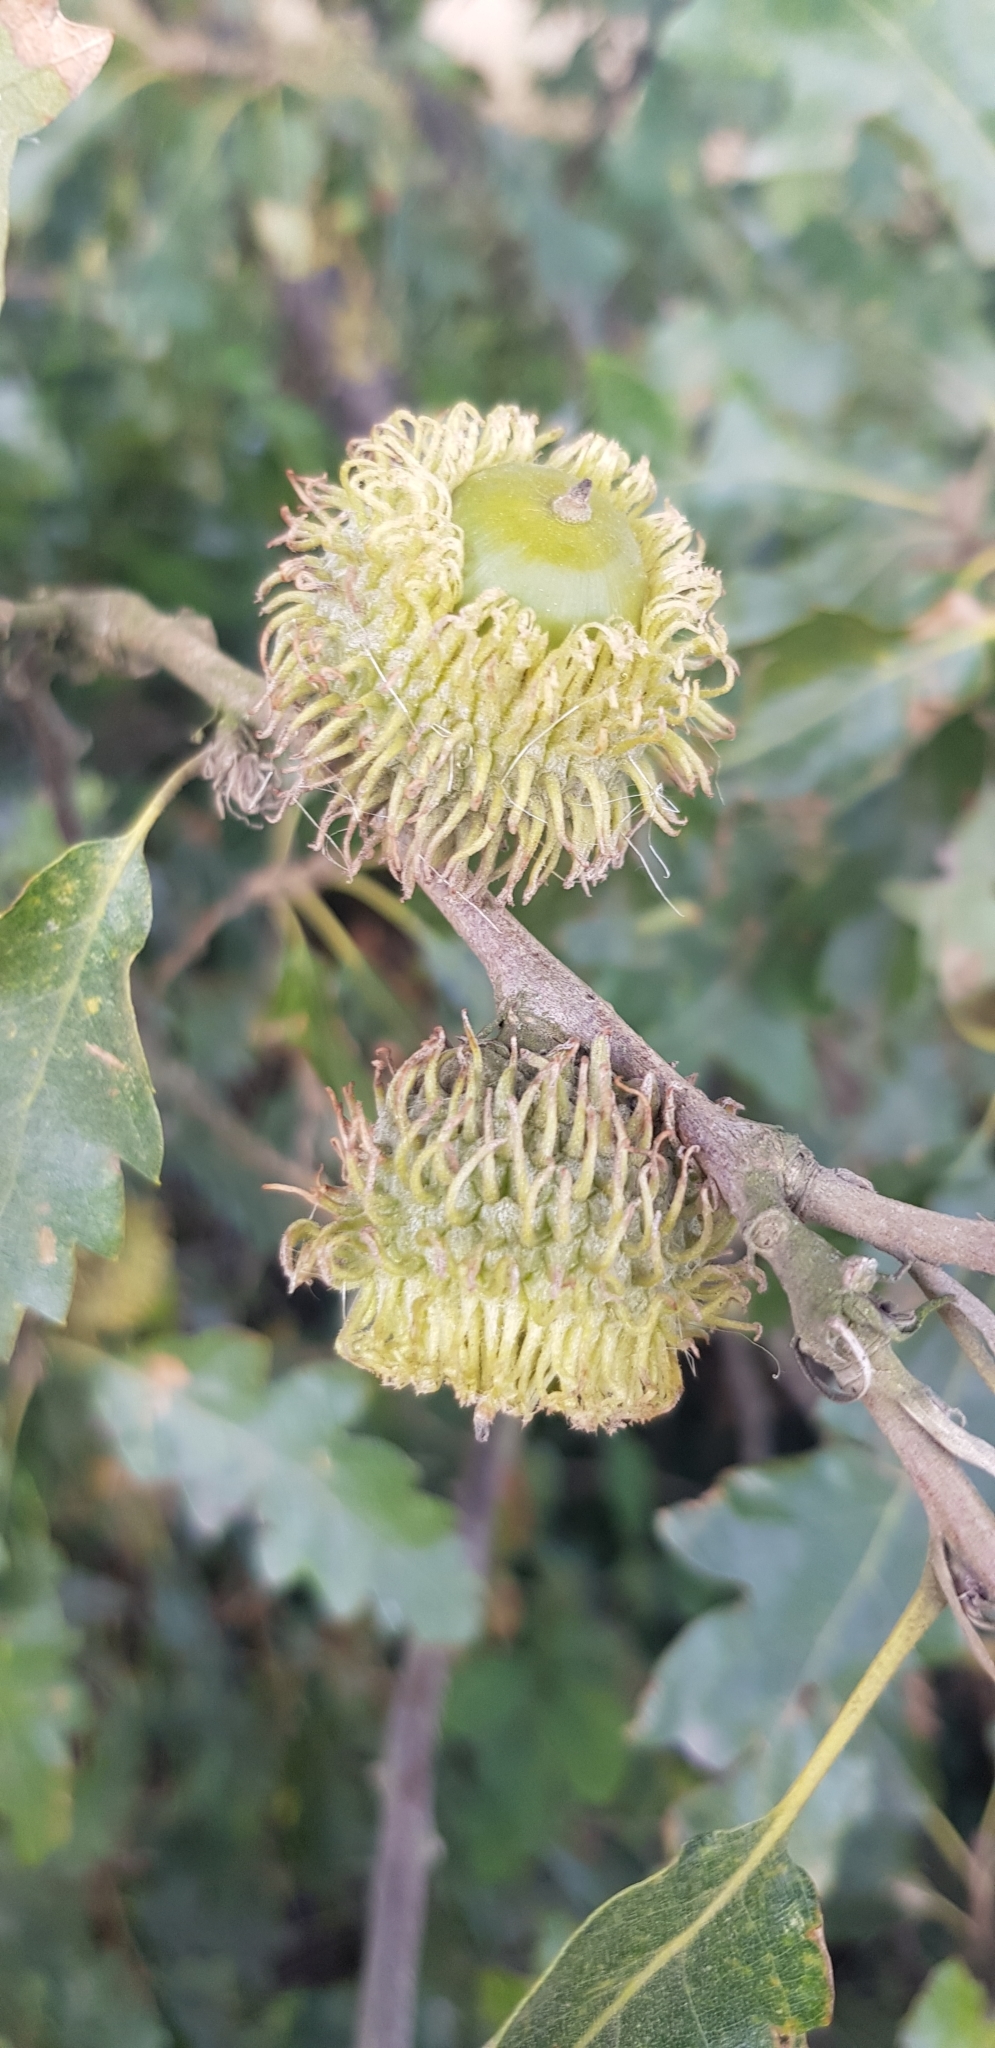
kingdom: Plantae
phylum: Tracheophyta
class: Magnoliopsida
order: Fagales
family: Fagaceae
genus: Quercus
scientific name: Quercus cerris
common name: Turkey oak
